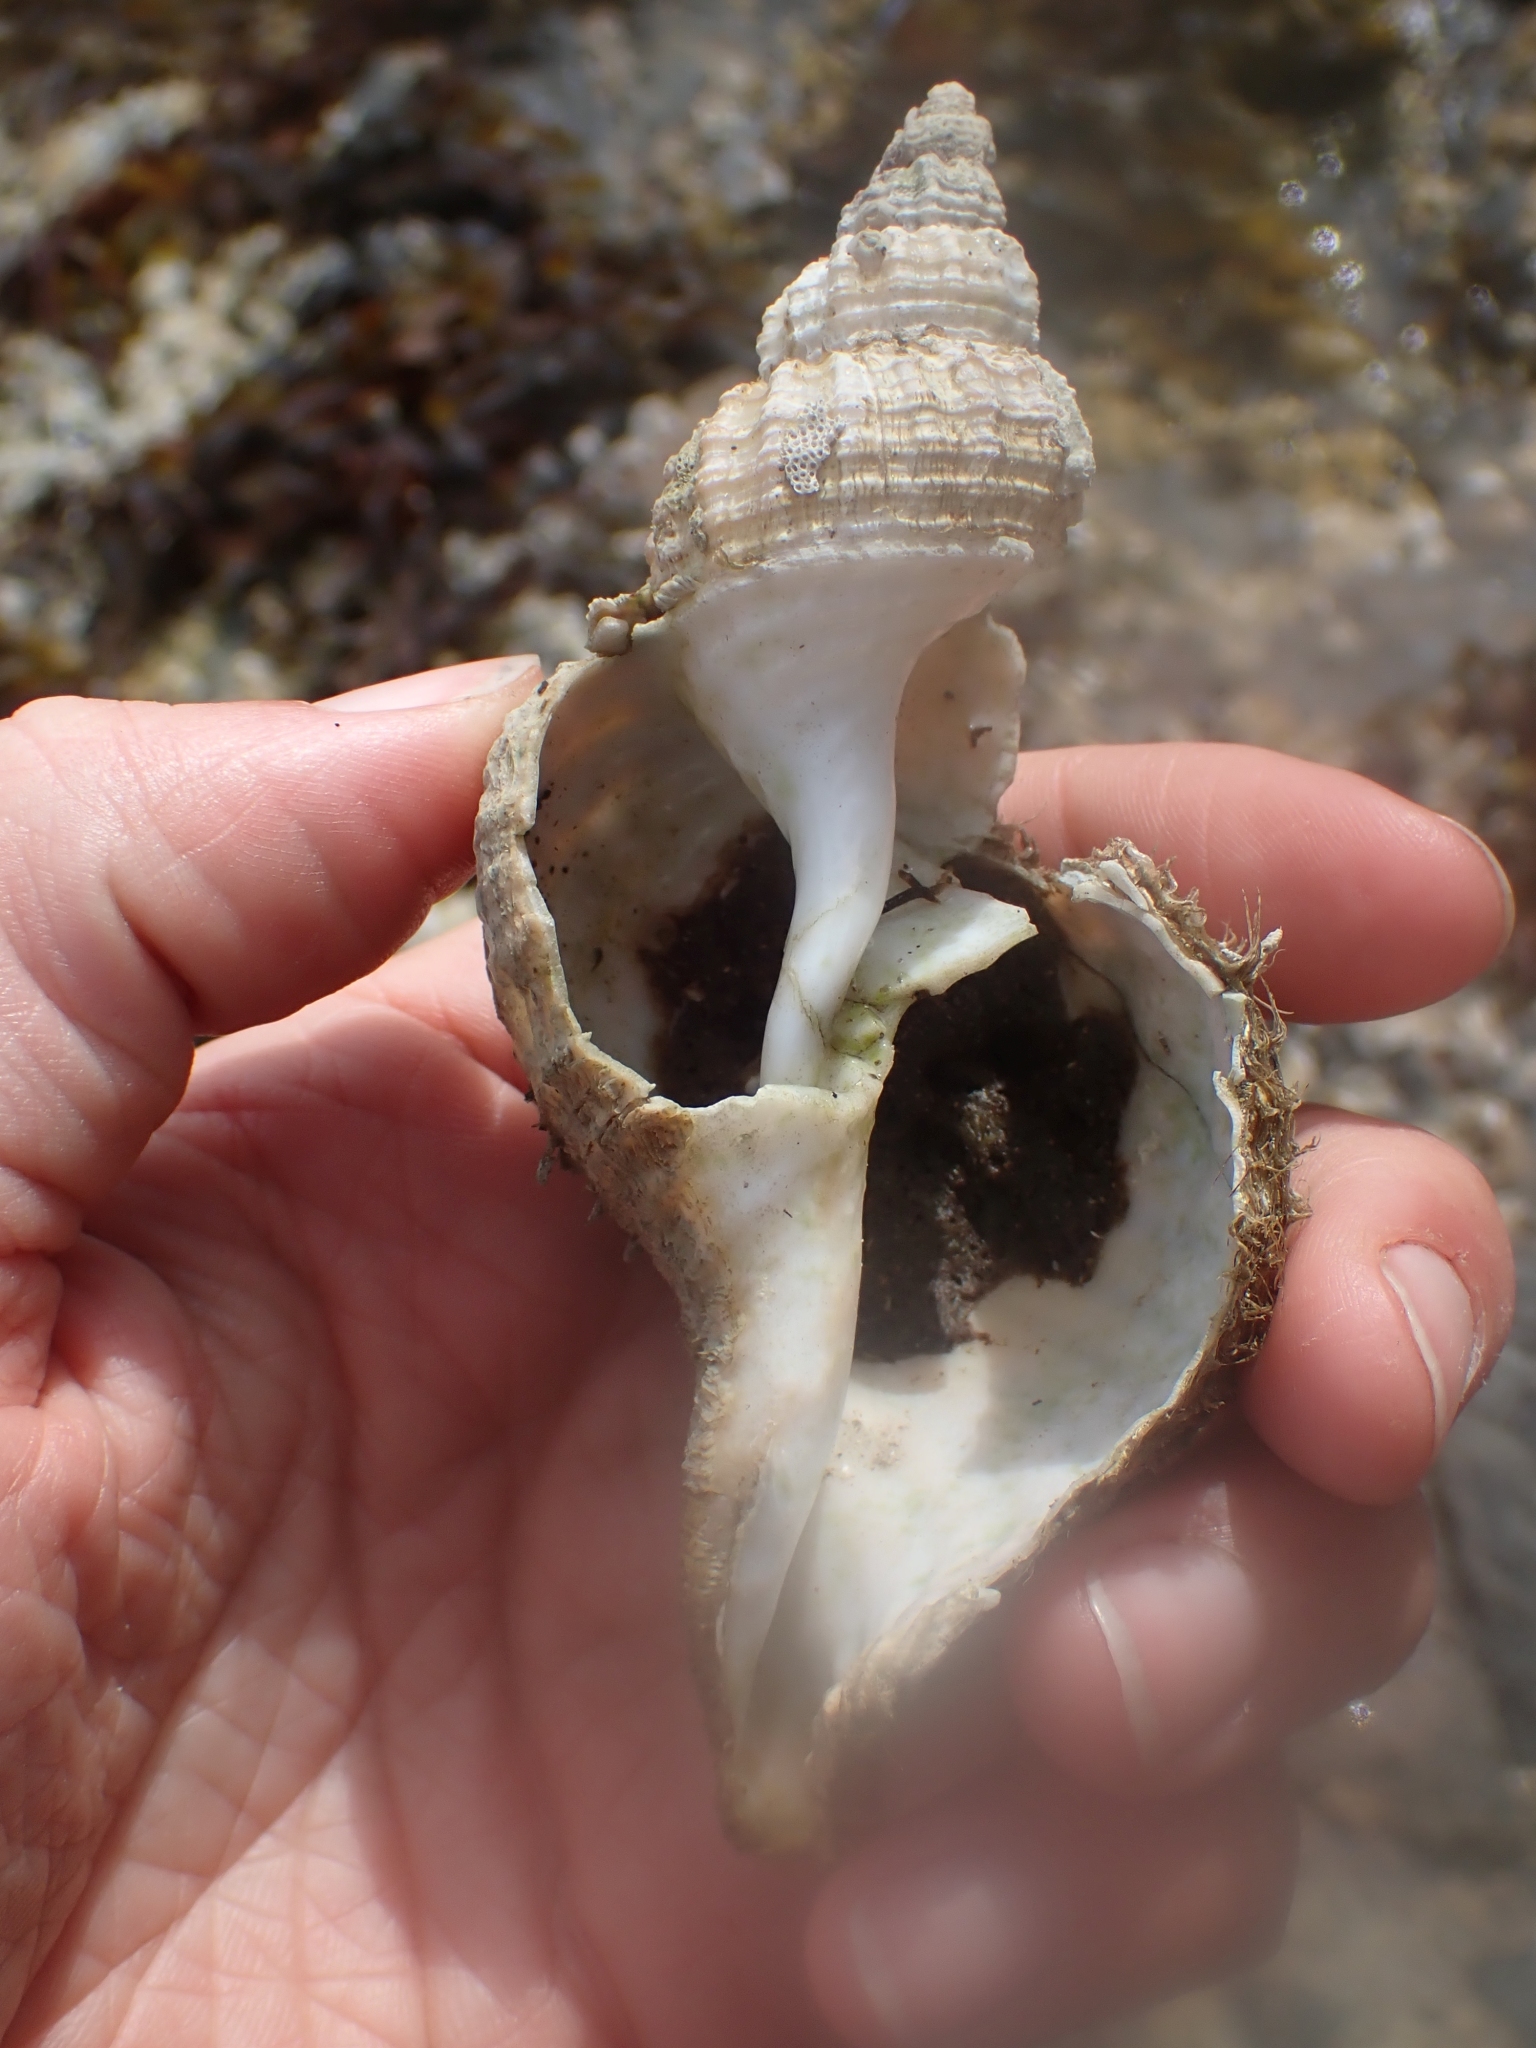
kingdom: Animalia
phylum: Mollusca
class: Gastropoda
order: Littorinimorpha
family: Cymatiidae
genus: Fusitriton
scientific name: Fusitriton oregonensis
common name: Oregon hairy triton
